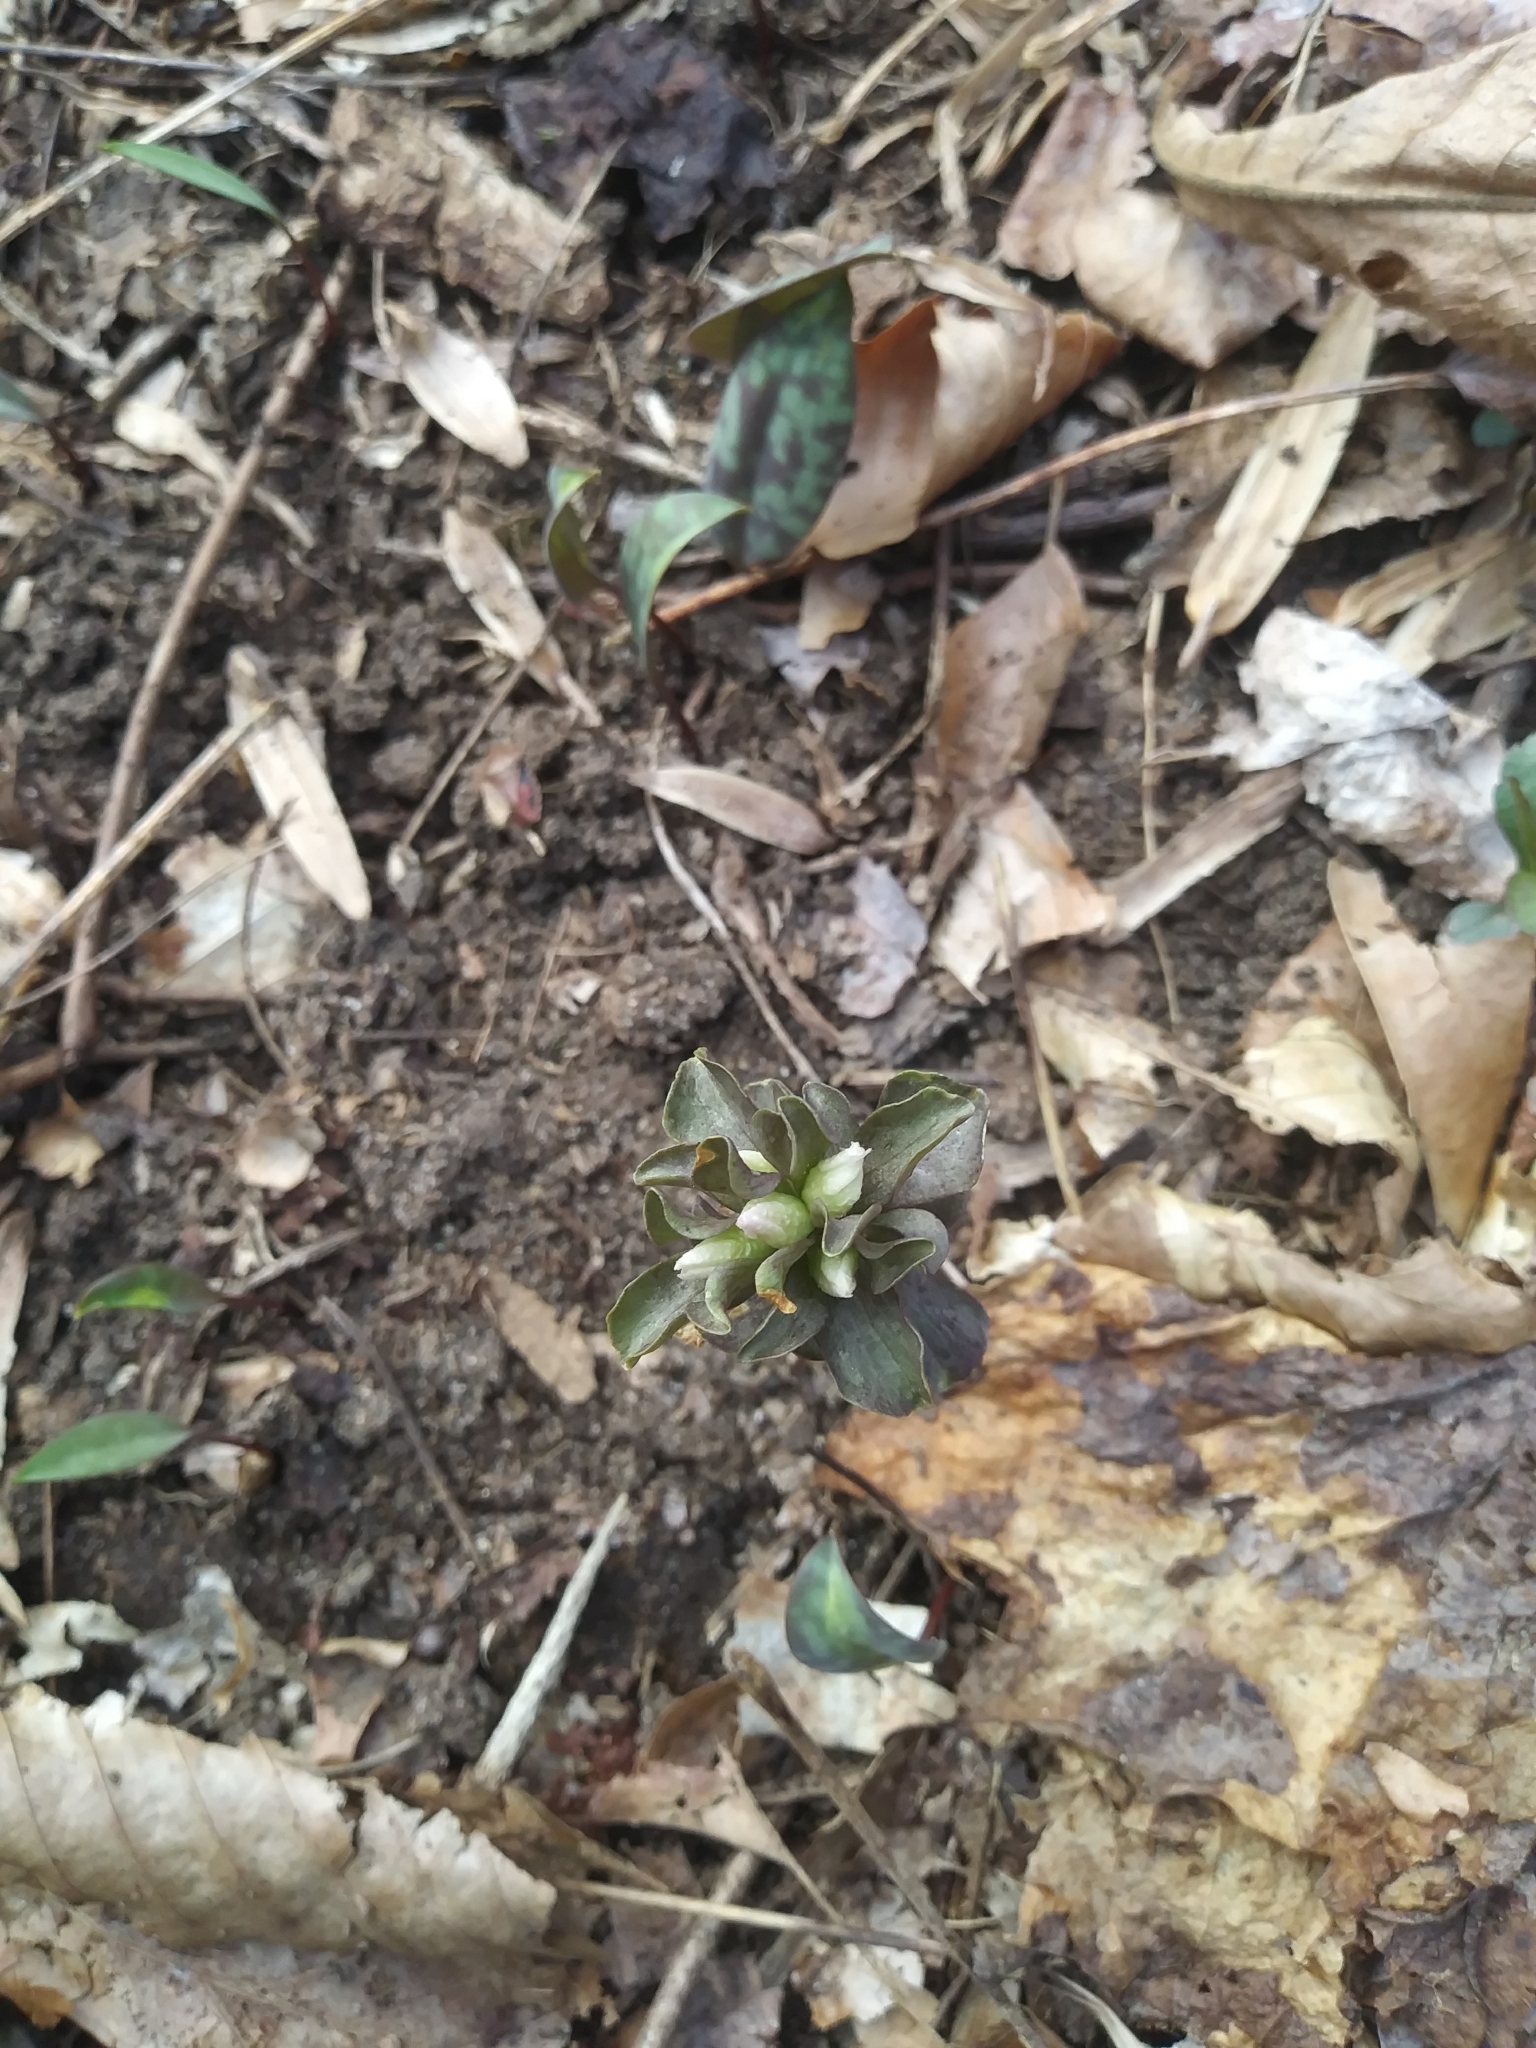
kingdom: Plantae
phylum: Tracheophyta
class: Magnoliopsida
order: Gentianales
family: Gentianaceae
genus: Obolaria
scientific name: Obolaria virginica
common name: Pennywort
